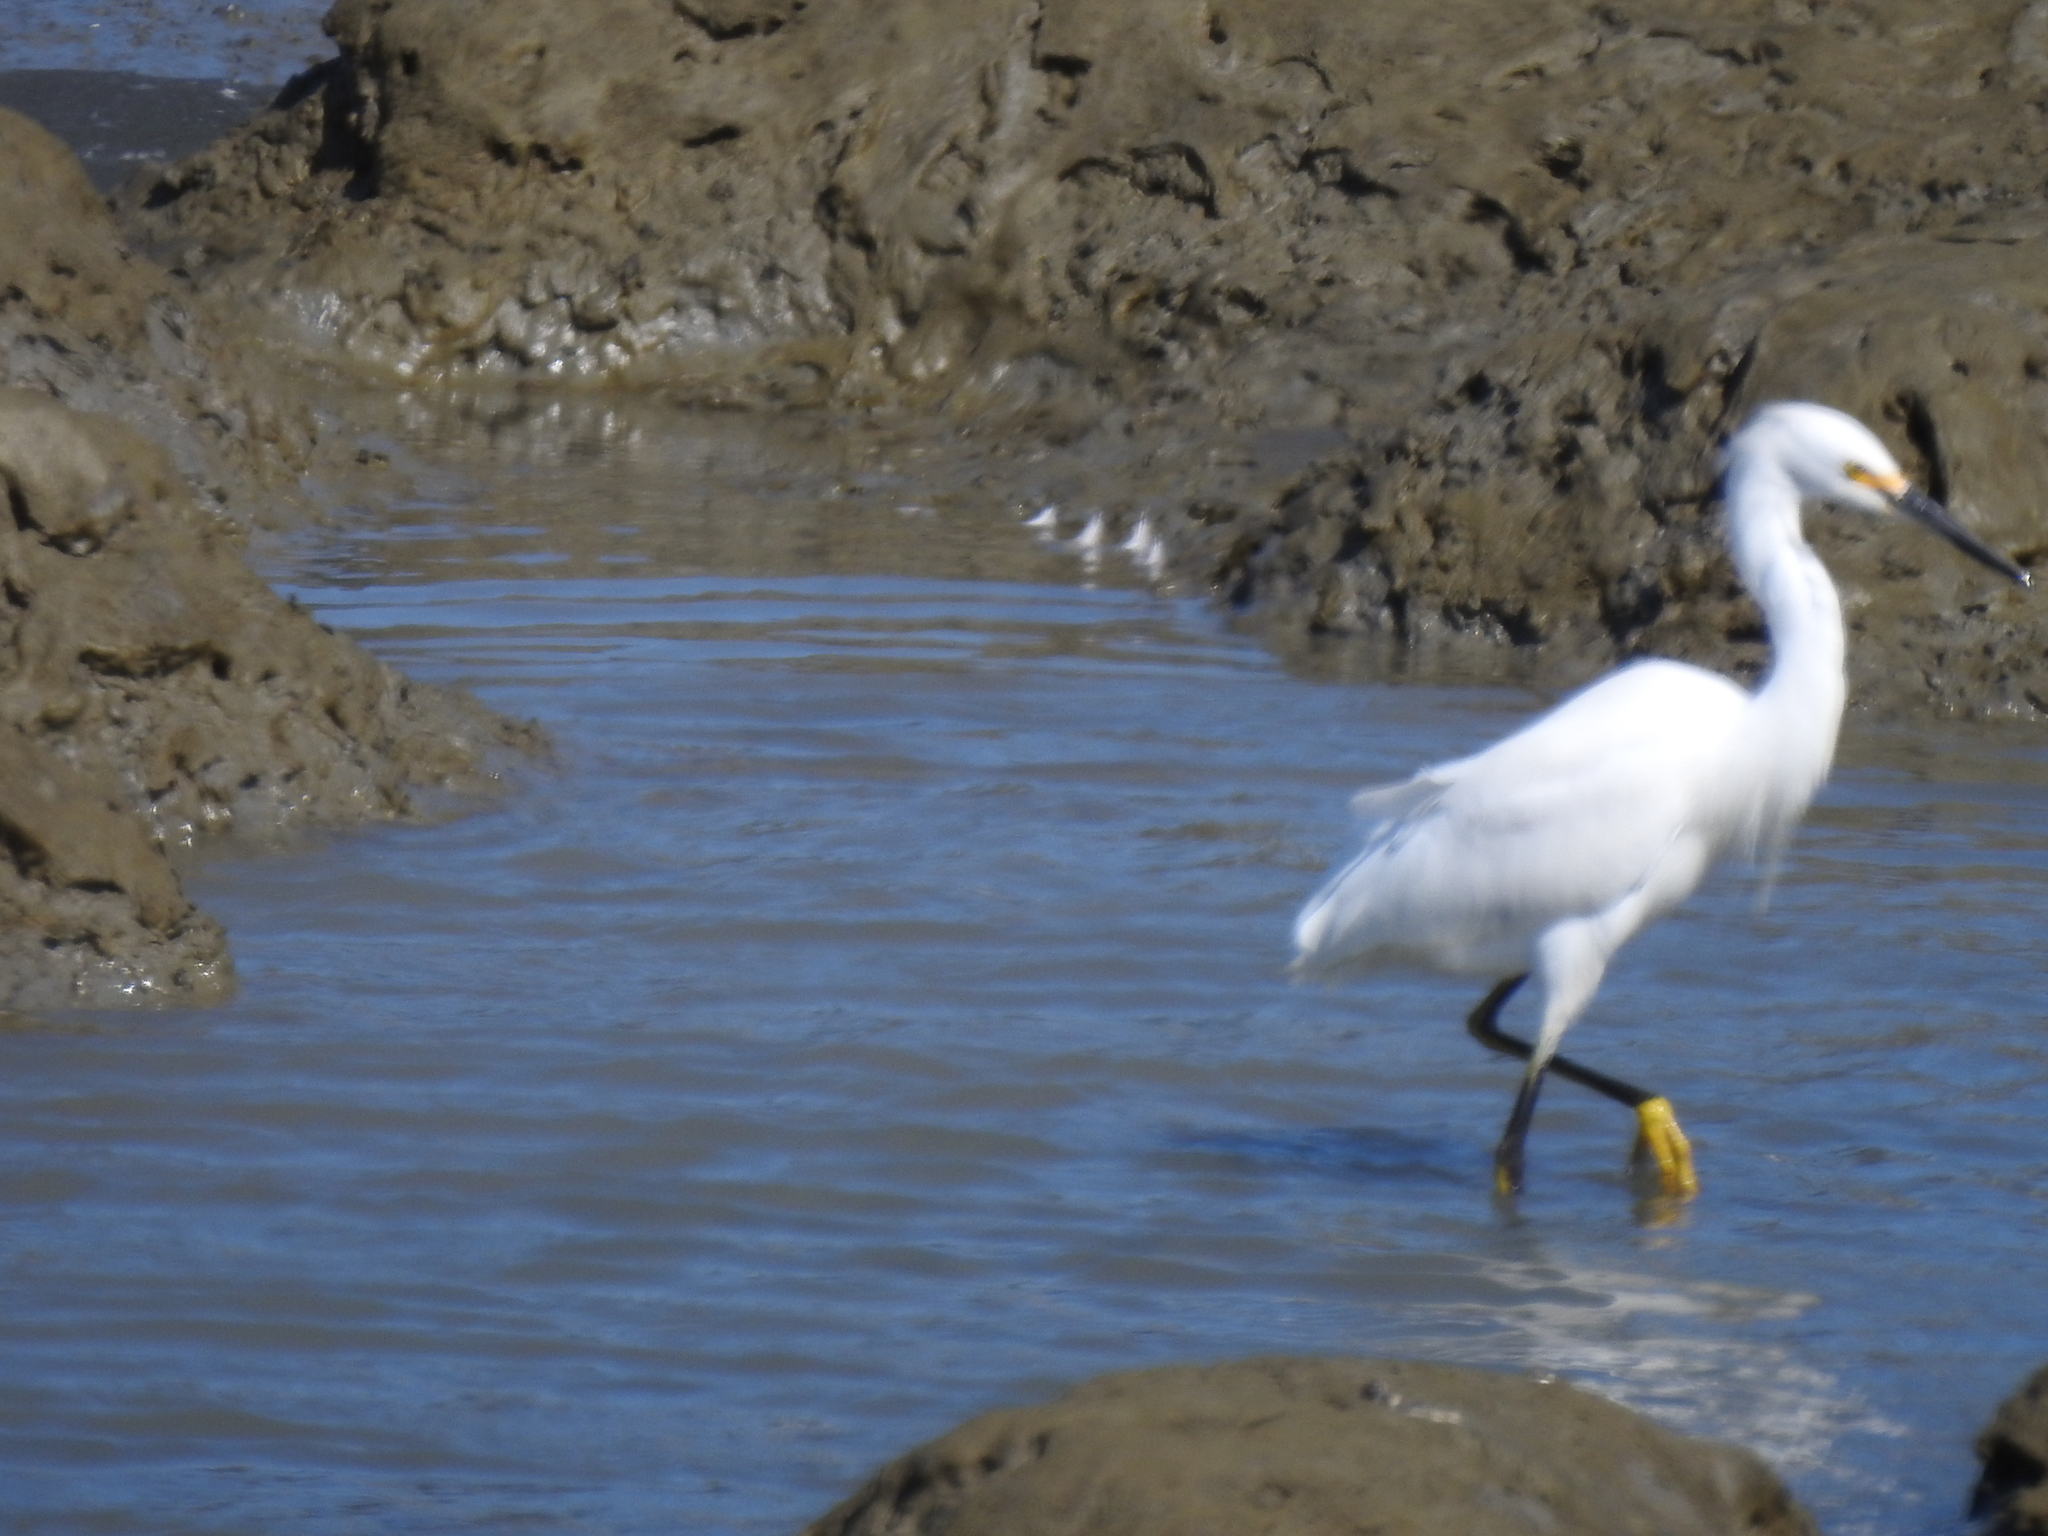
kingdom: Animalia
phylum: Chordata
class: Aves
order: Pelecaniformes
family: Ardeidae
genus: Egretta
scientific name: Egretta thula
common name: Snowy egret
